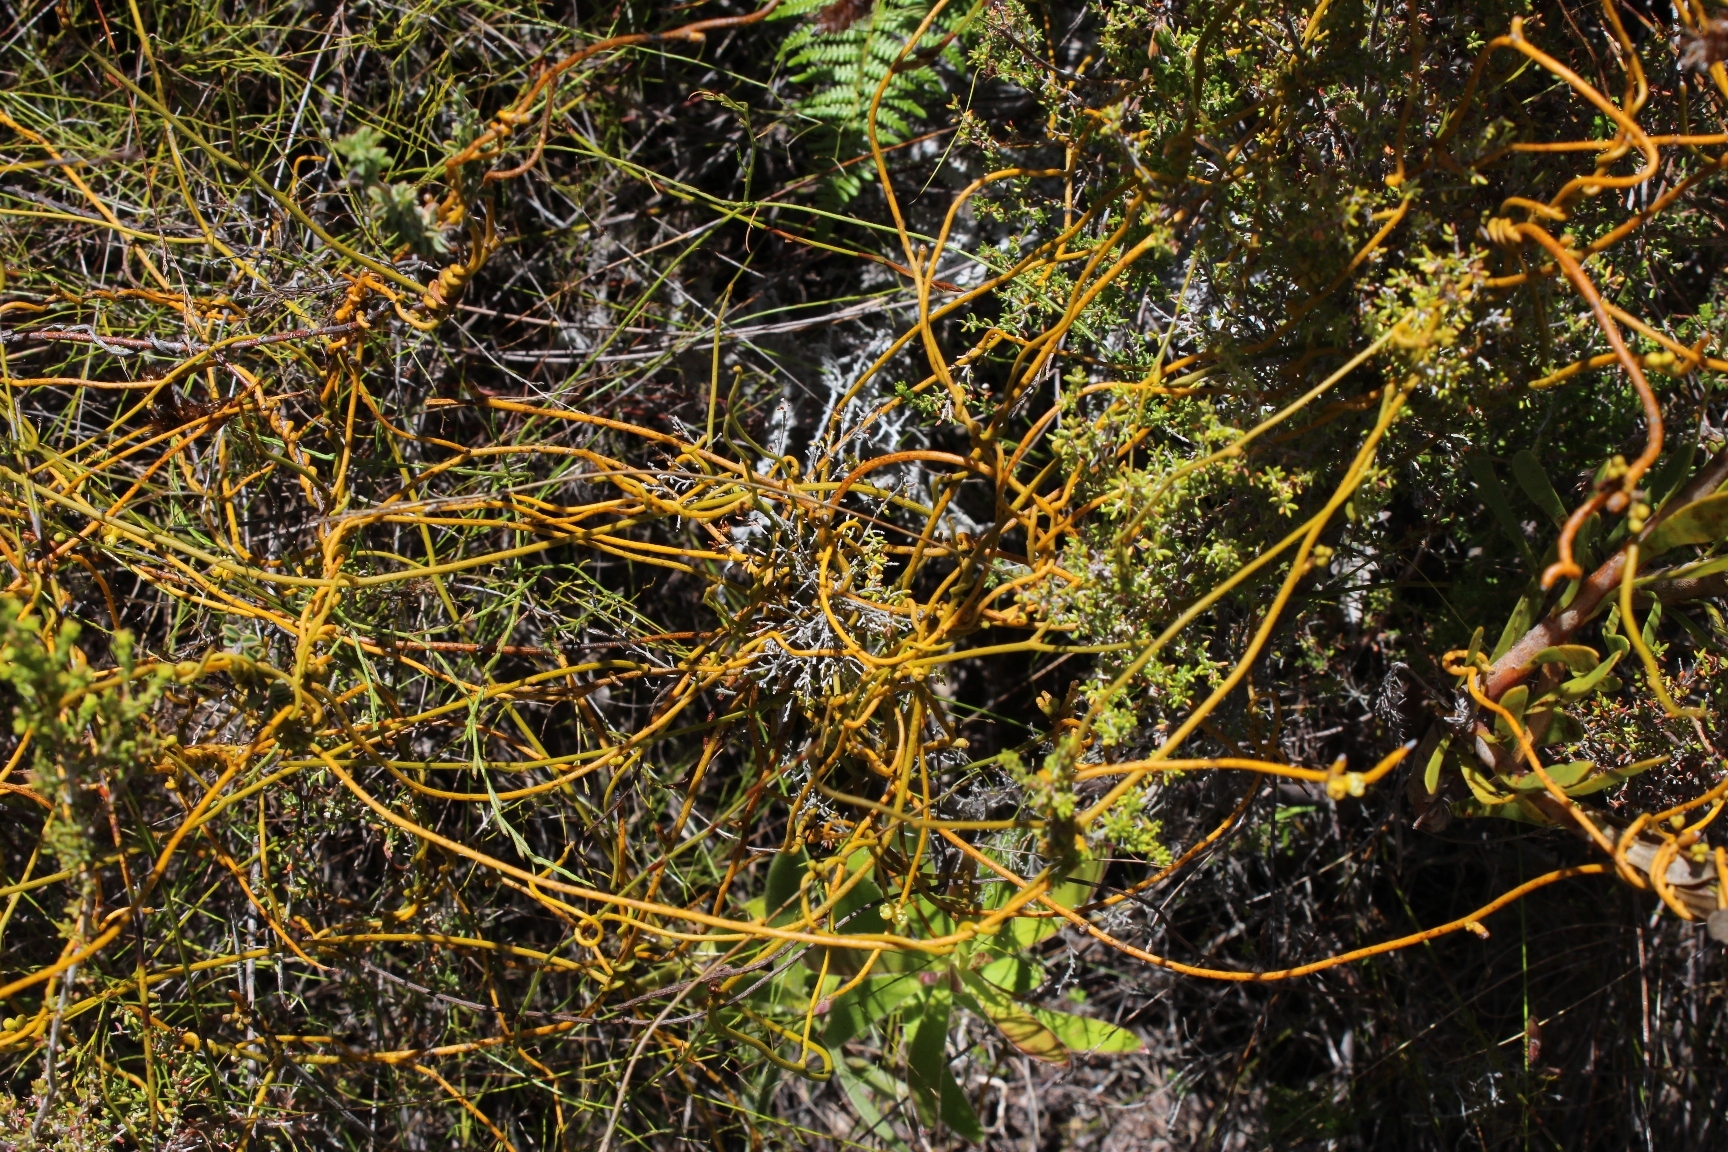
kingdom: Plantae
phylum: Tracheophyta
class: Magnoliopsida
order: Laurales
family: Lauraceae
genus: Cassytha
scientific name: Cassytha ciliolata
